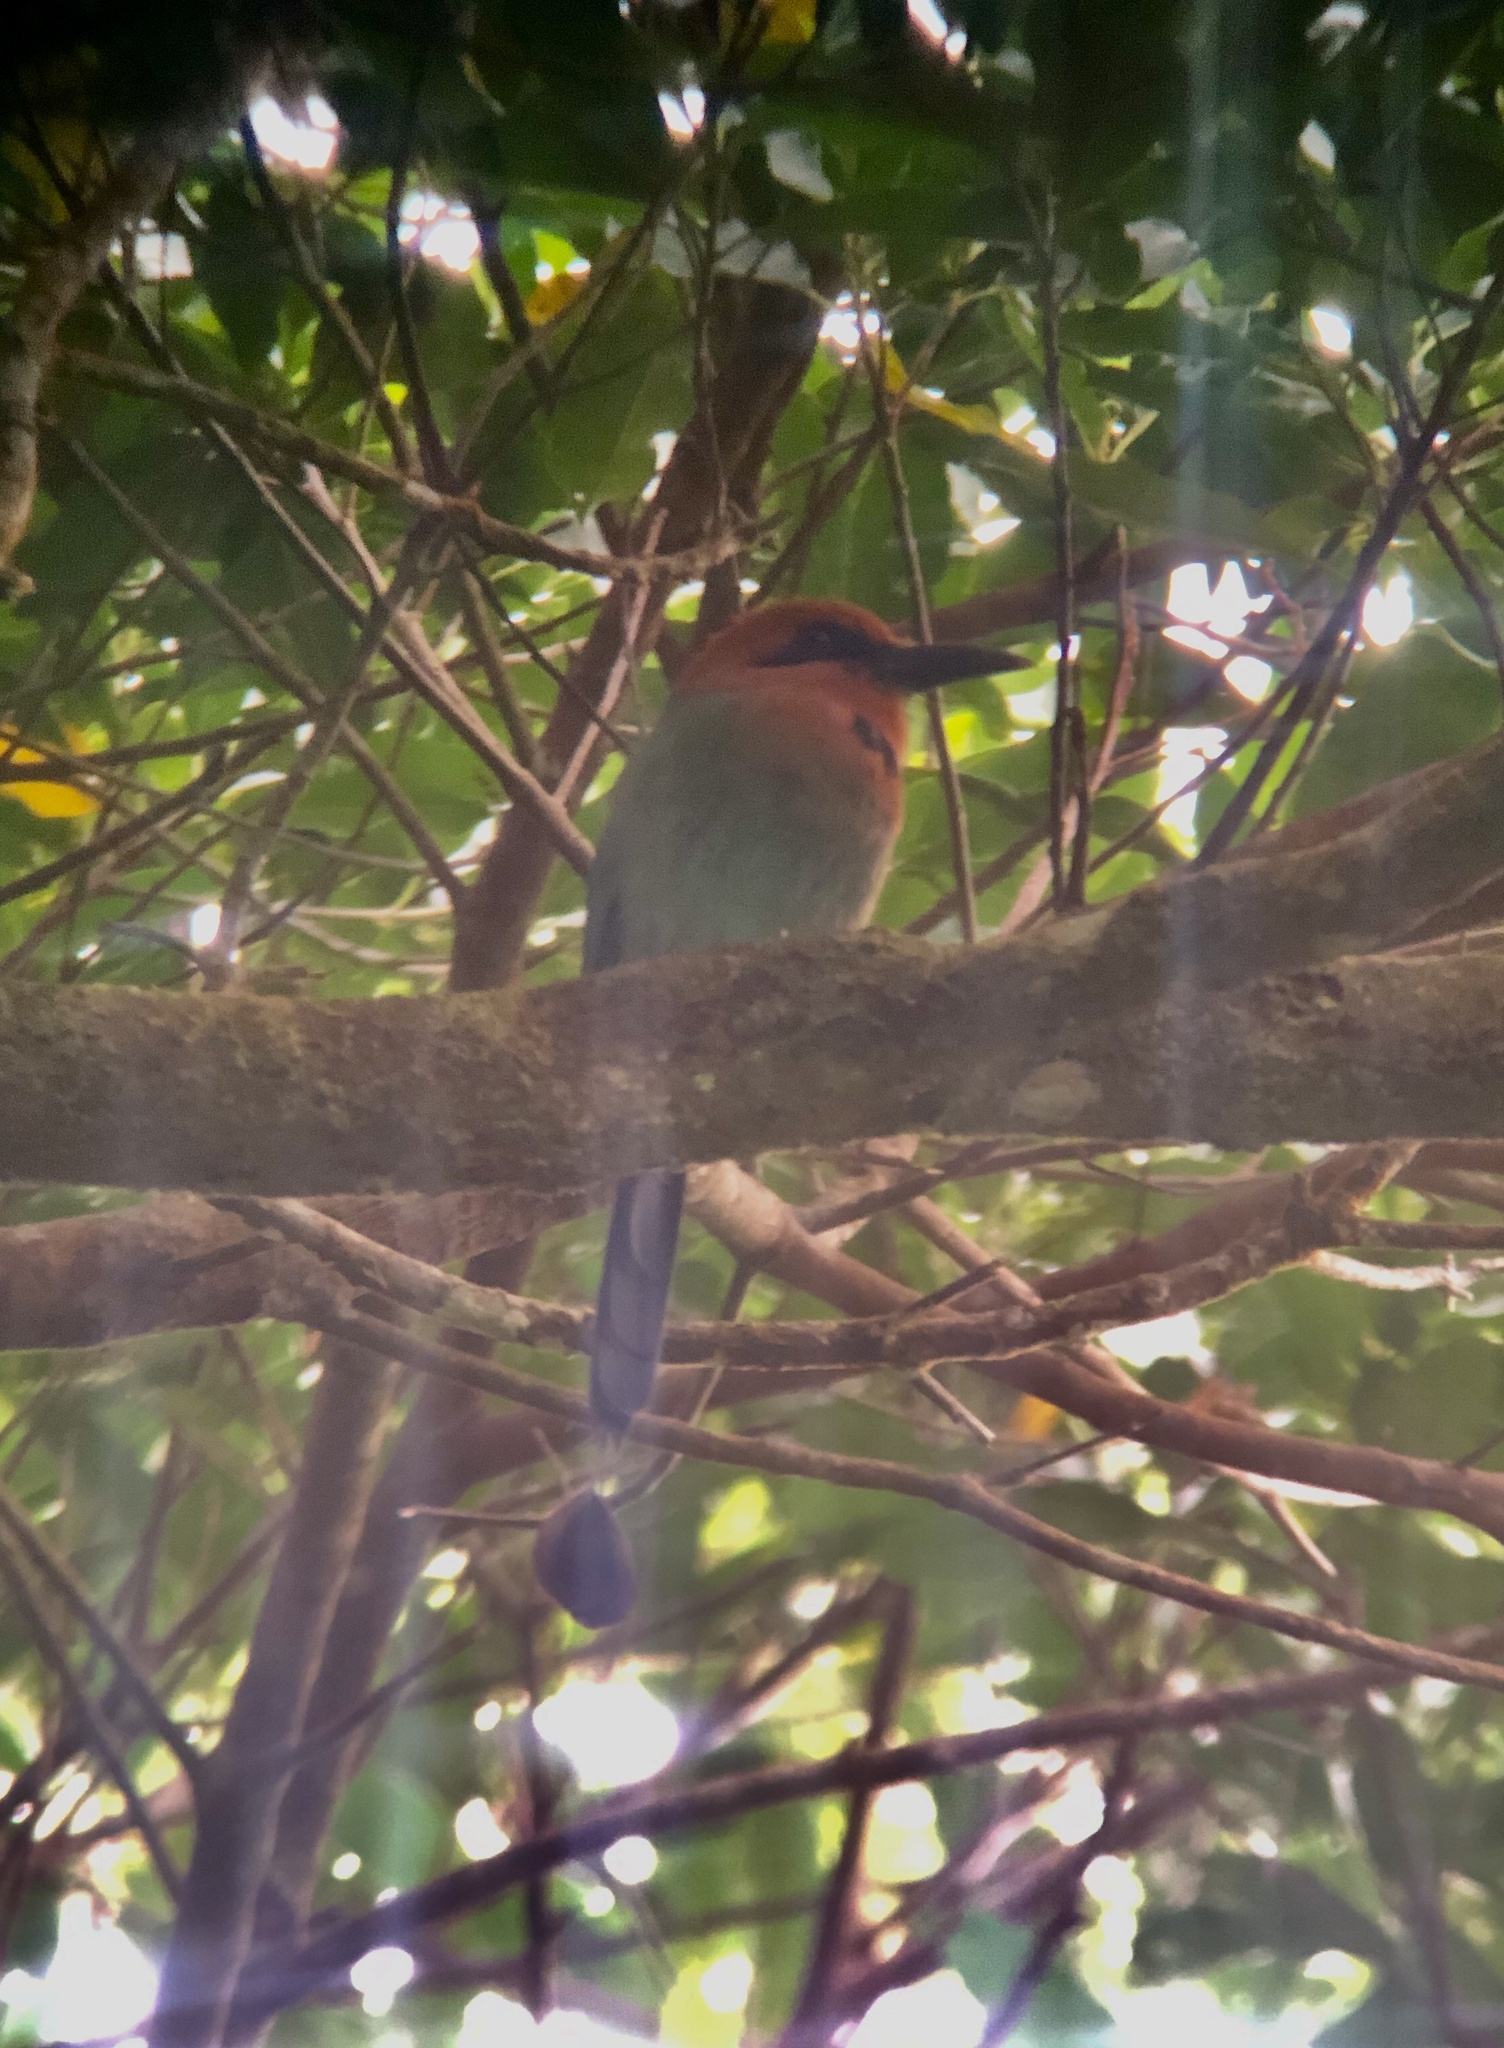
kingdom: Animalia
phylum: Chordata
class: Aves
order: Coraciiformes
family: Momotidae
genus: Electron
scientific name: Electron platyrhynchum
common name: Broad-billed motmot
